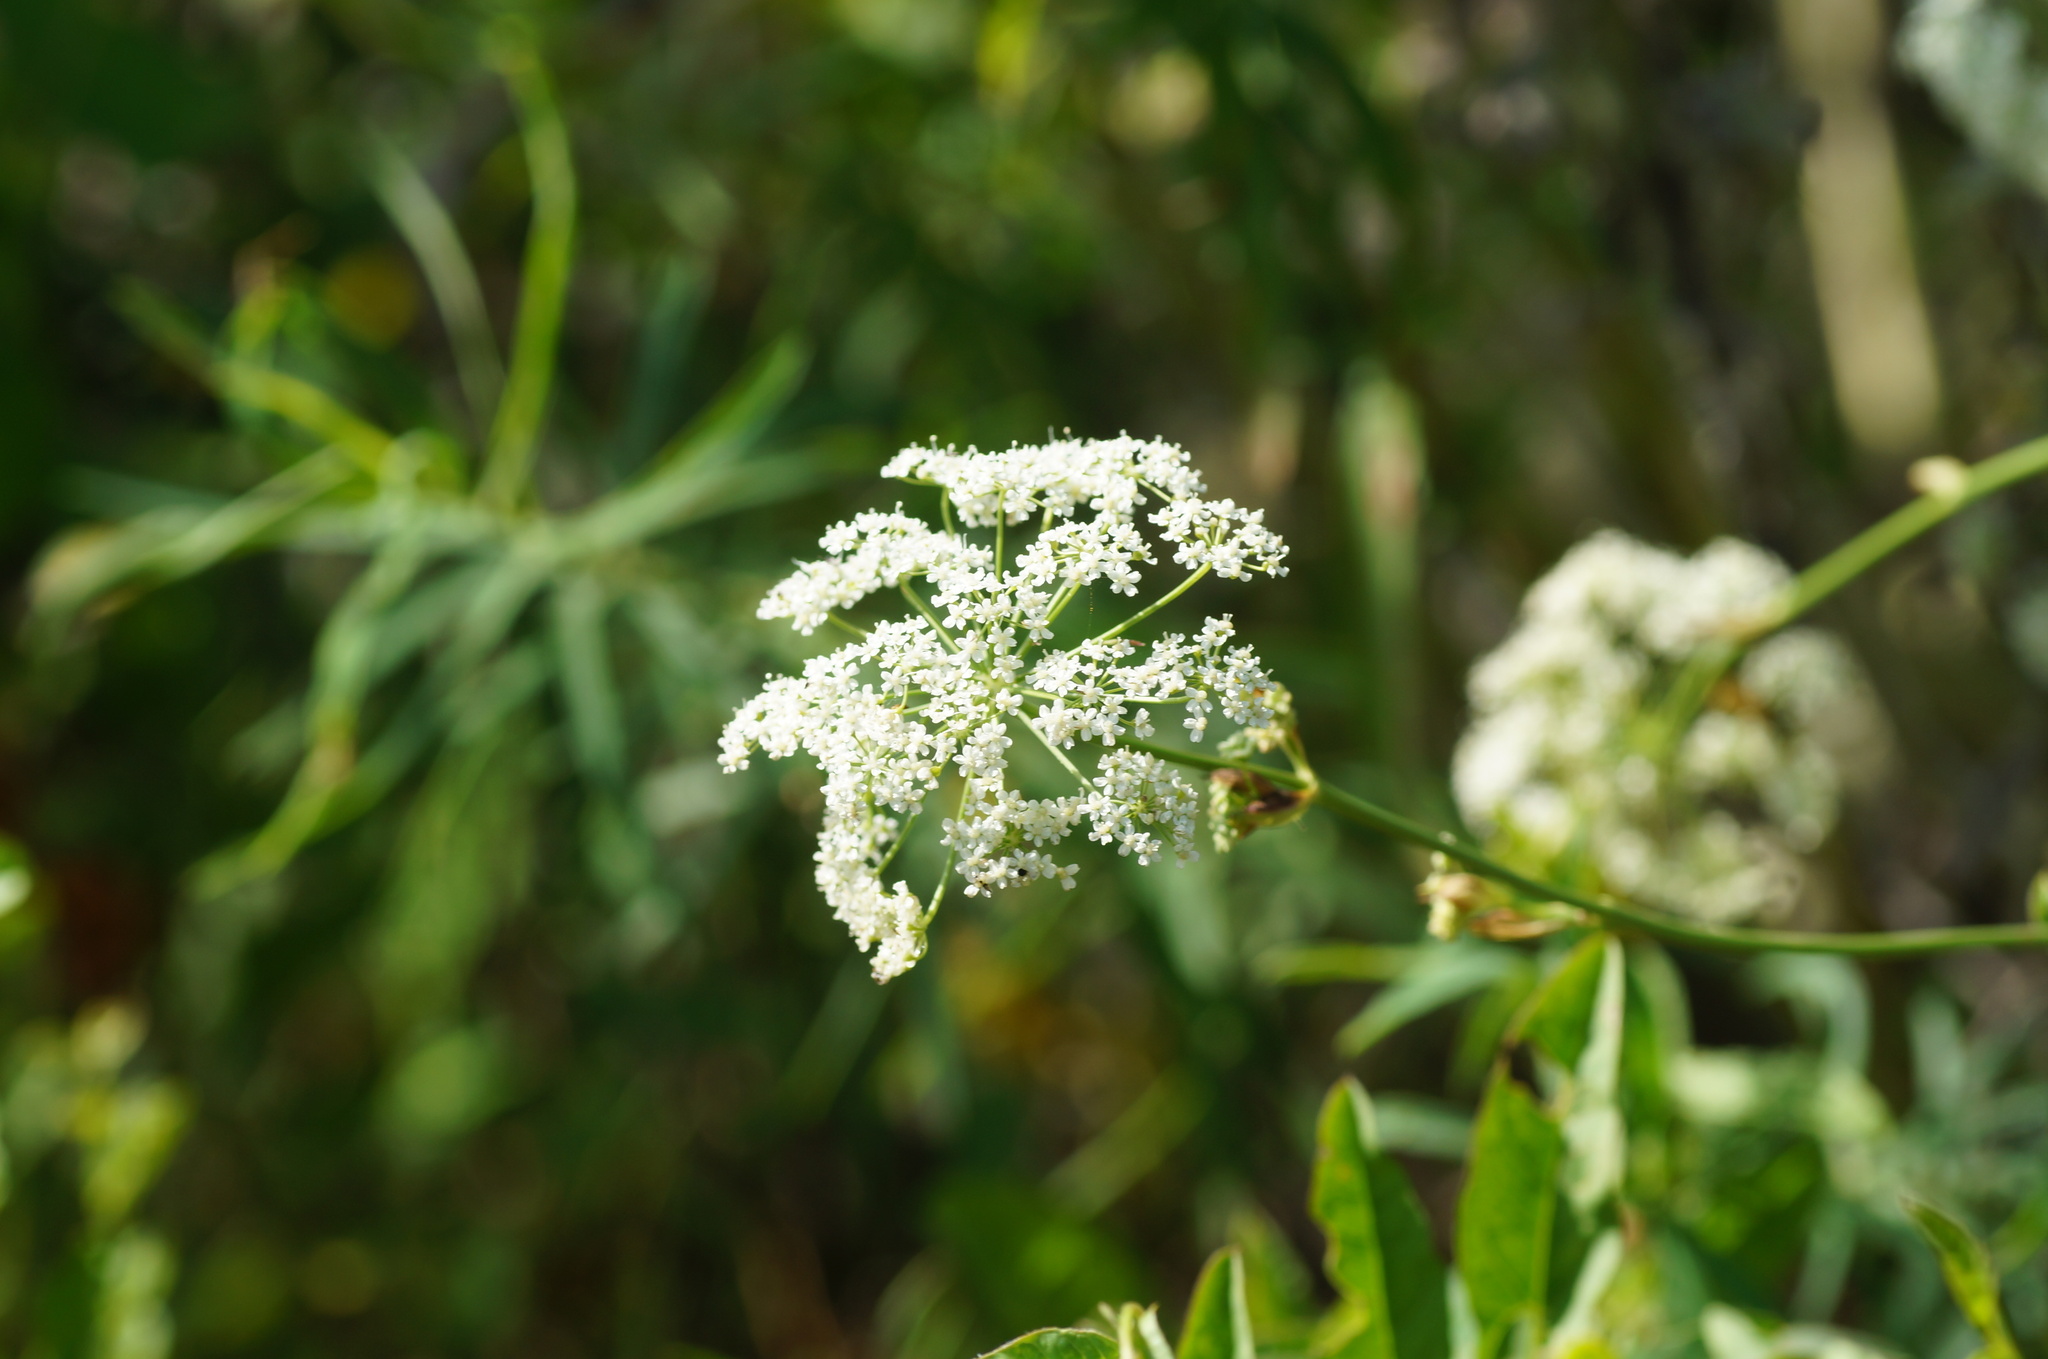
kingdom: Plantae
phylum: Tracheophyta
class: Magnoliopsida
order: Apiales
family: Apiaceae
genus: Pimpinella
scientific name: Pimpinella saxifraga
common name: Burnet-saxifrage
